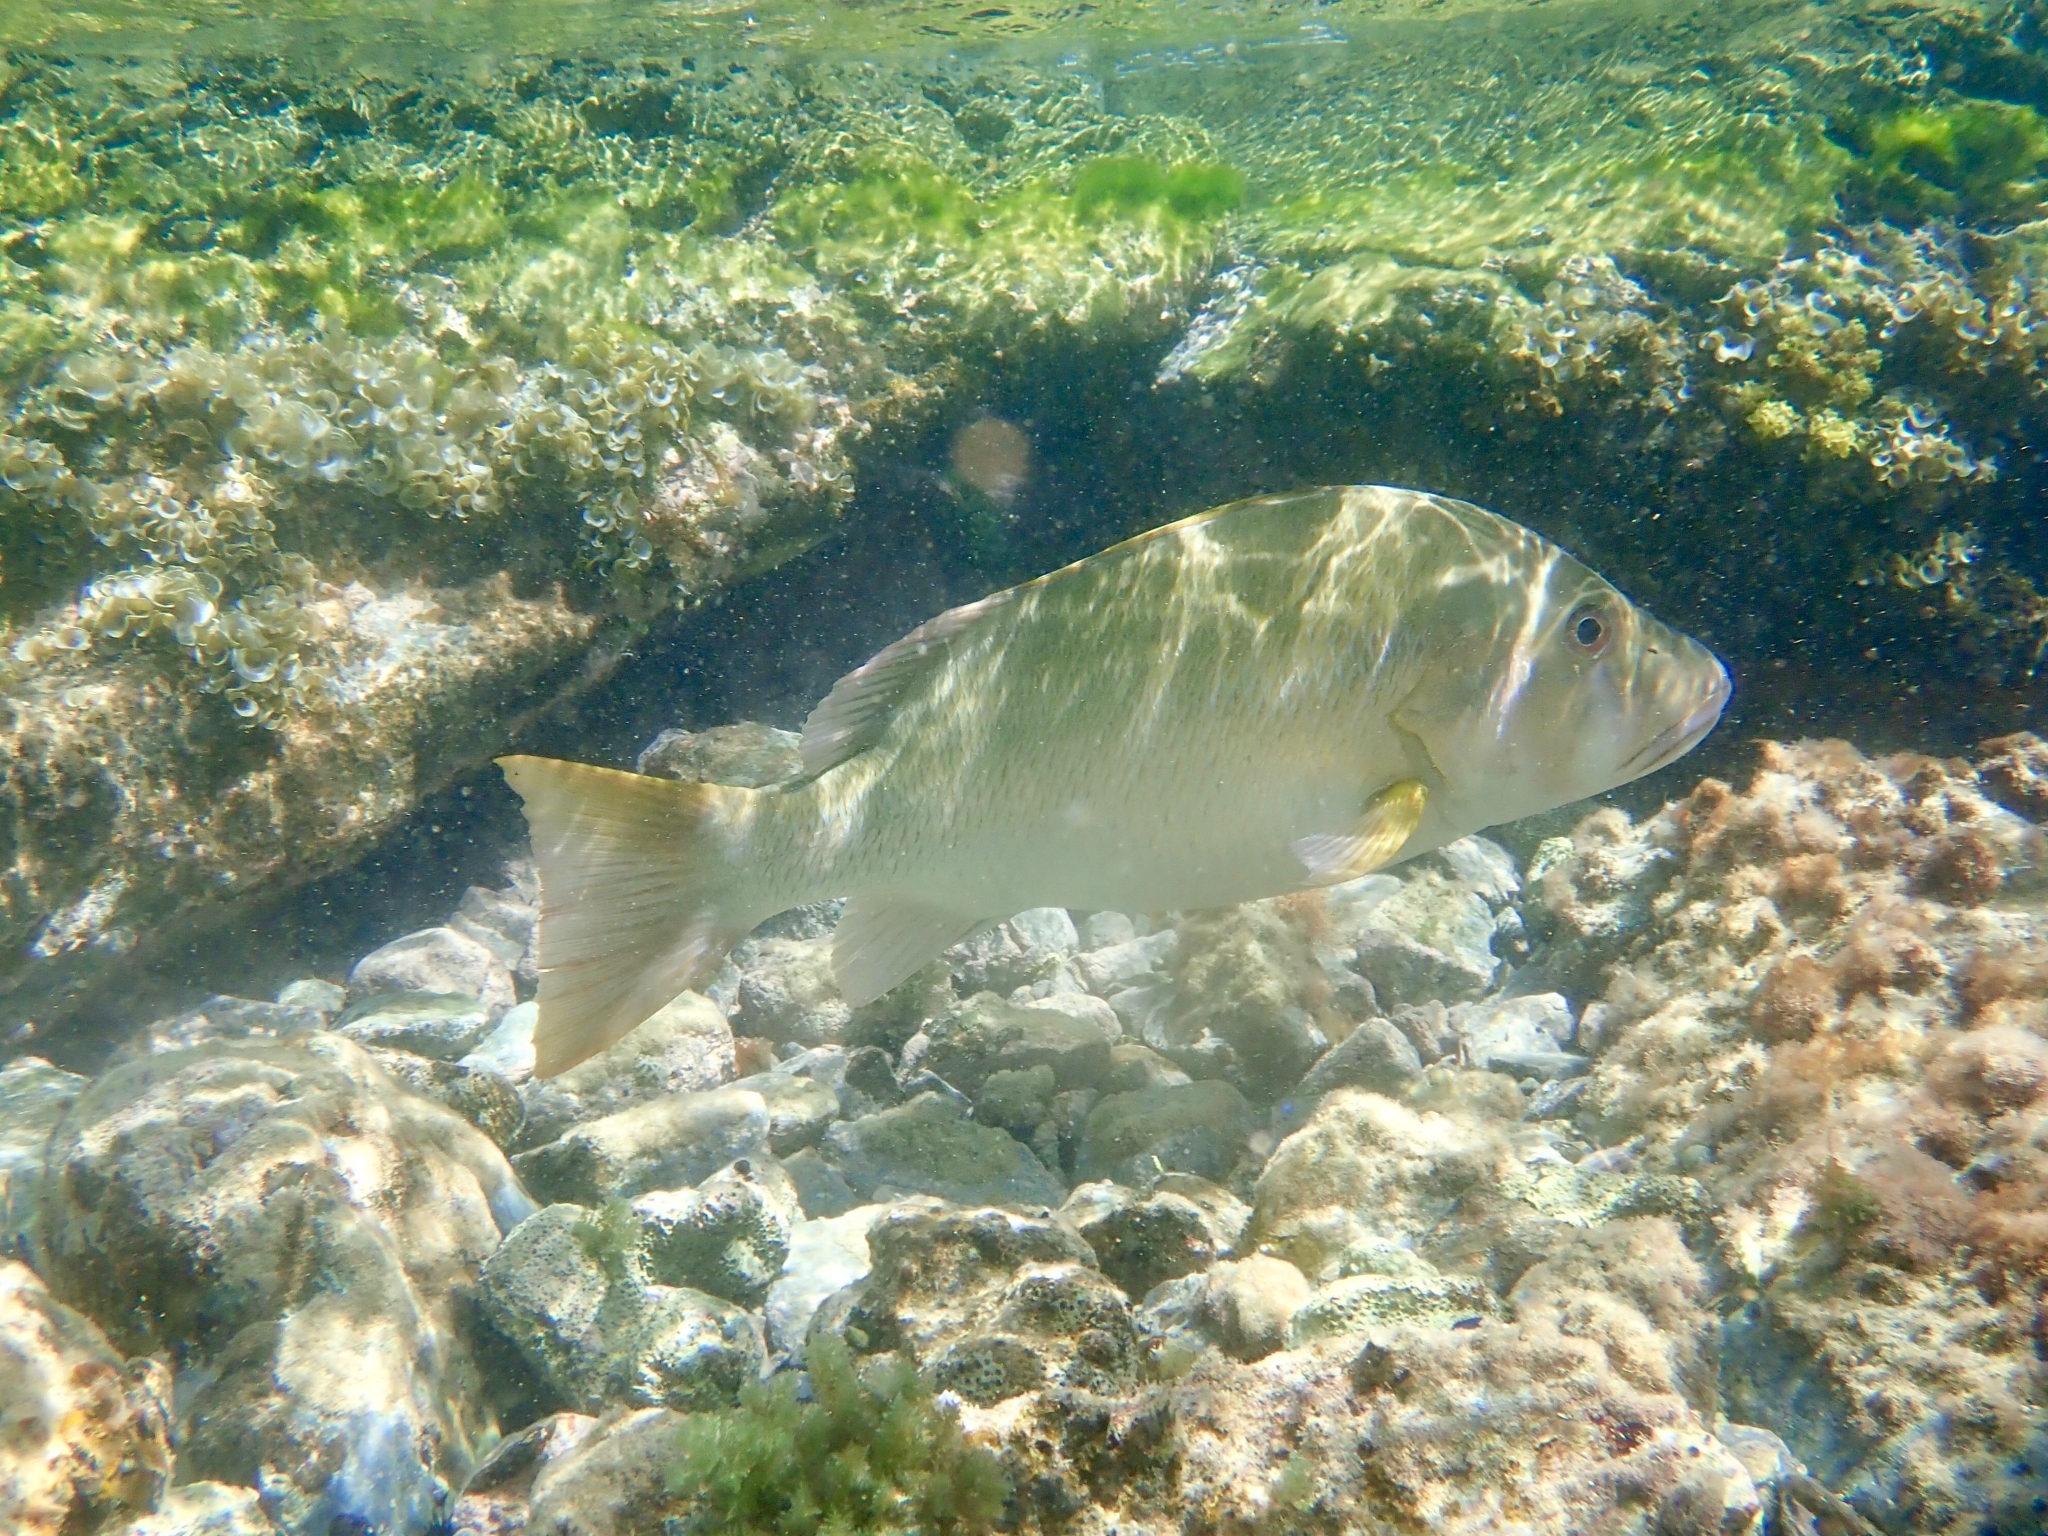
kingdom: Animalia
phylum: Chordata
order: Perciformes
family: Lutjanidae
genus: Lutjanus
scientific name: Lutjanus jocu
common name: Dog snapper
